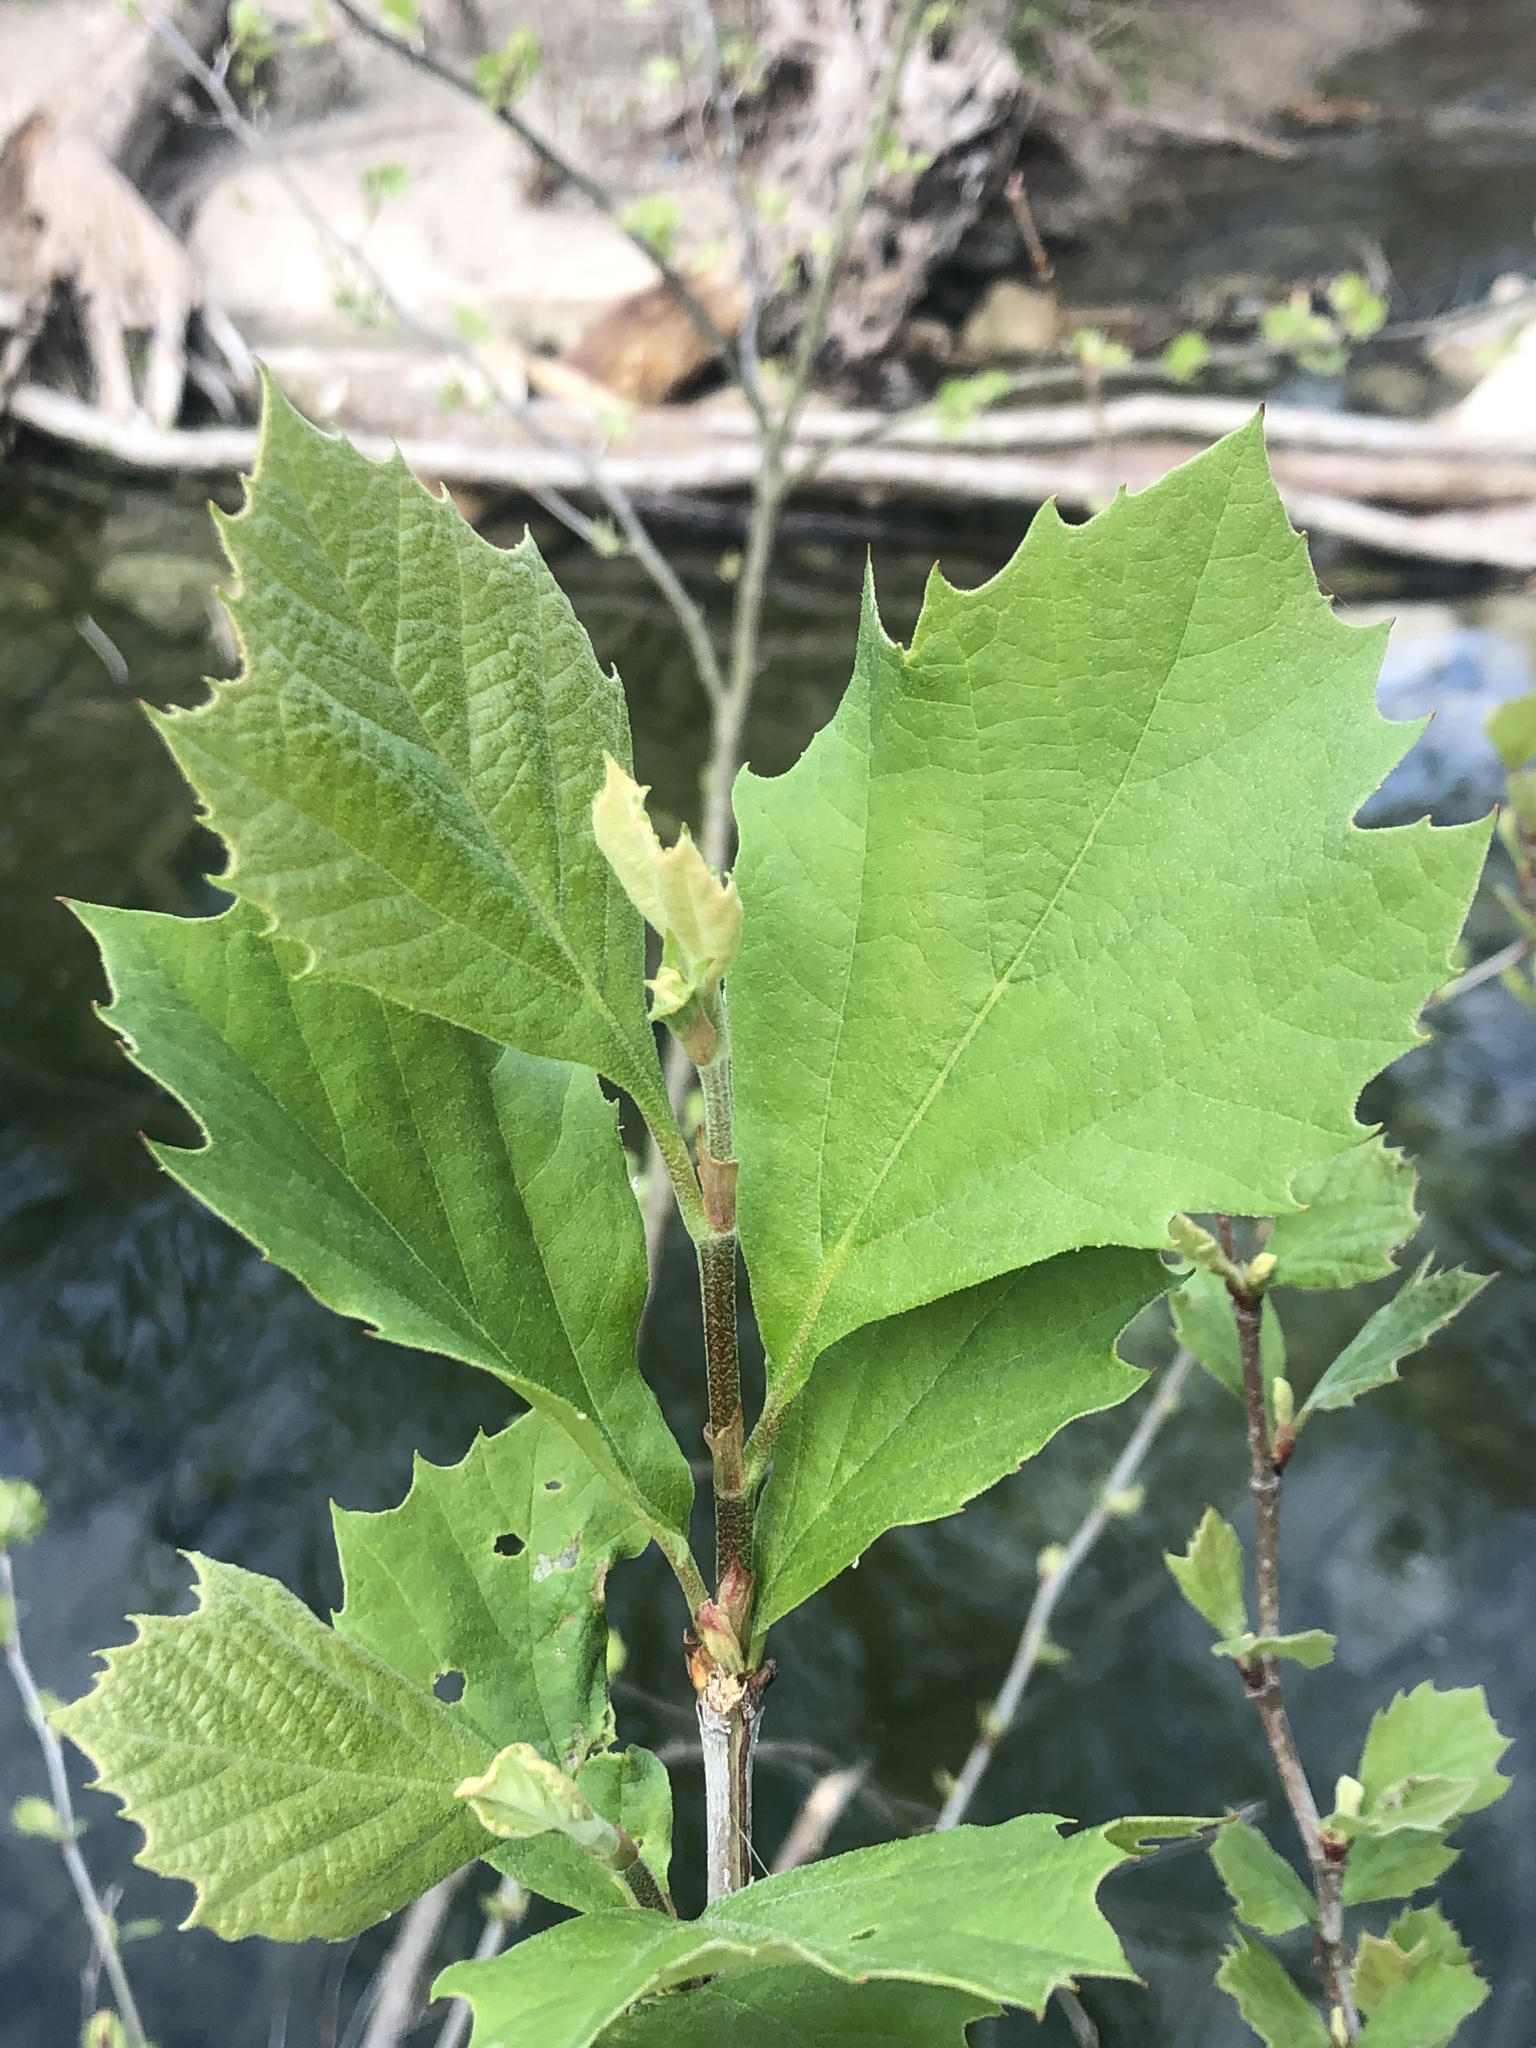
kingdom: Plantae
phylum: Tracheophyta
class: Magnoliopsida
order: Proteales
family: Platanaceae
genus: Platanus
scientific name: Platanus occidentalis
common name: American sycamore
